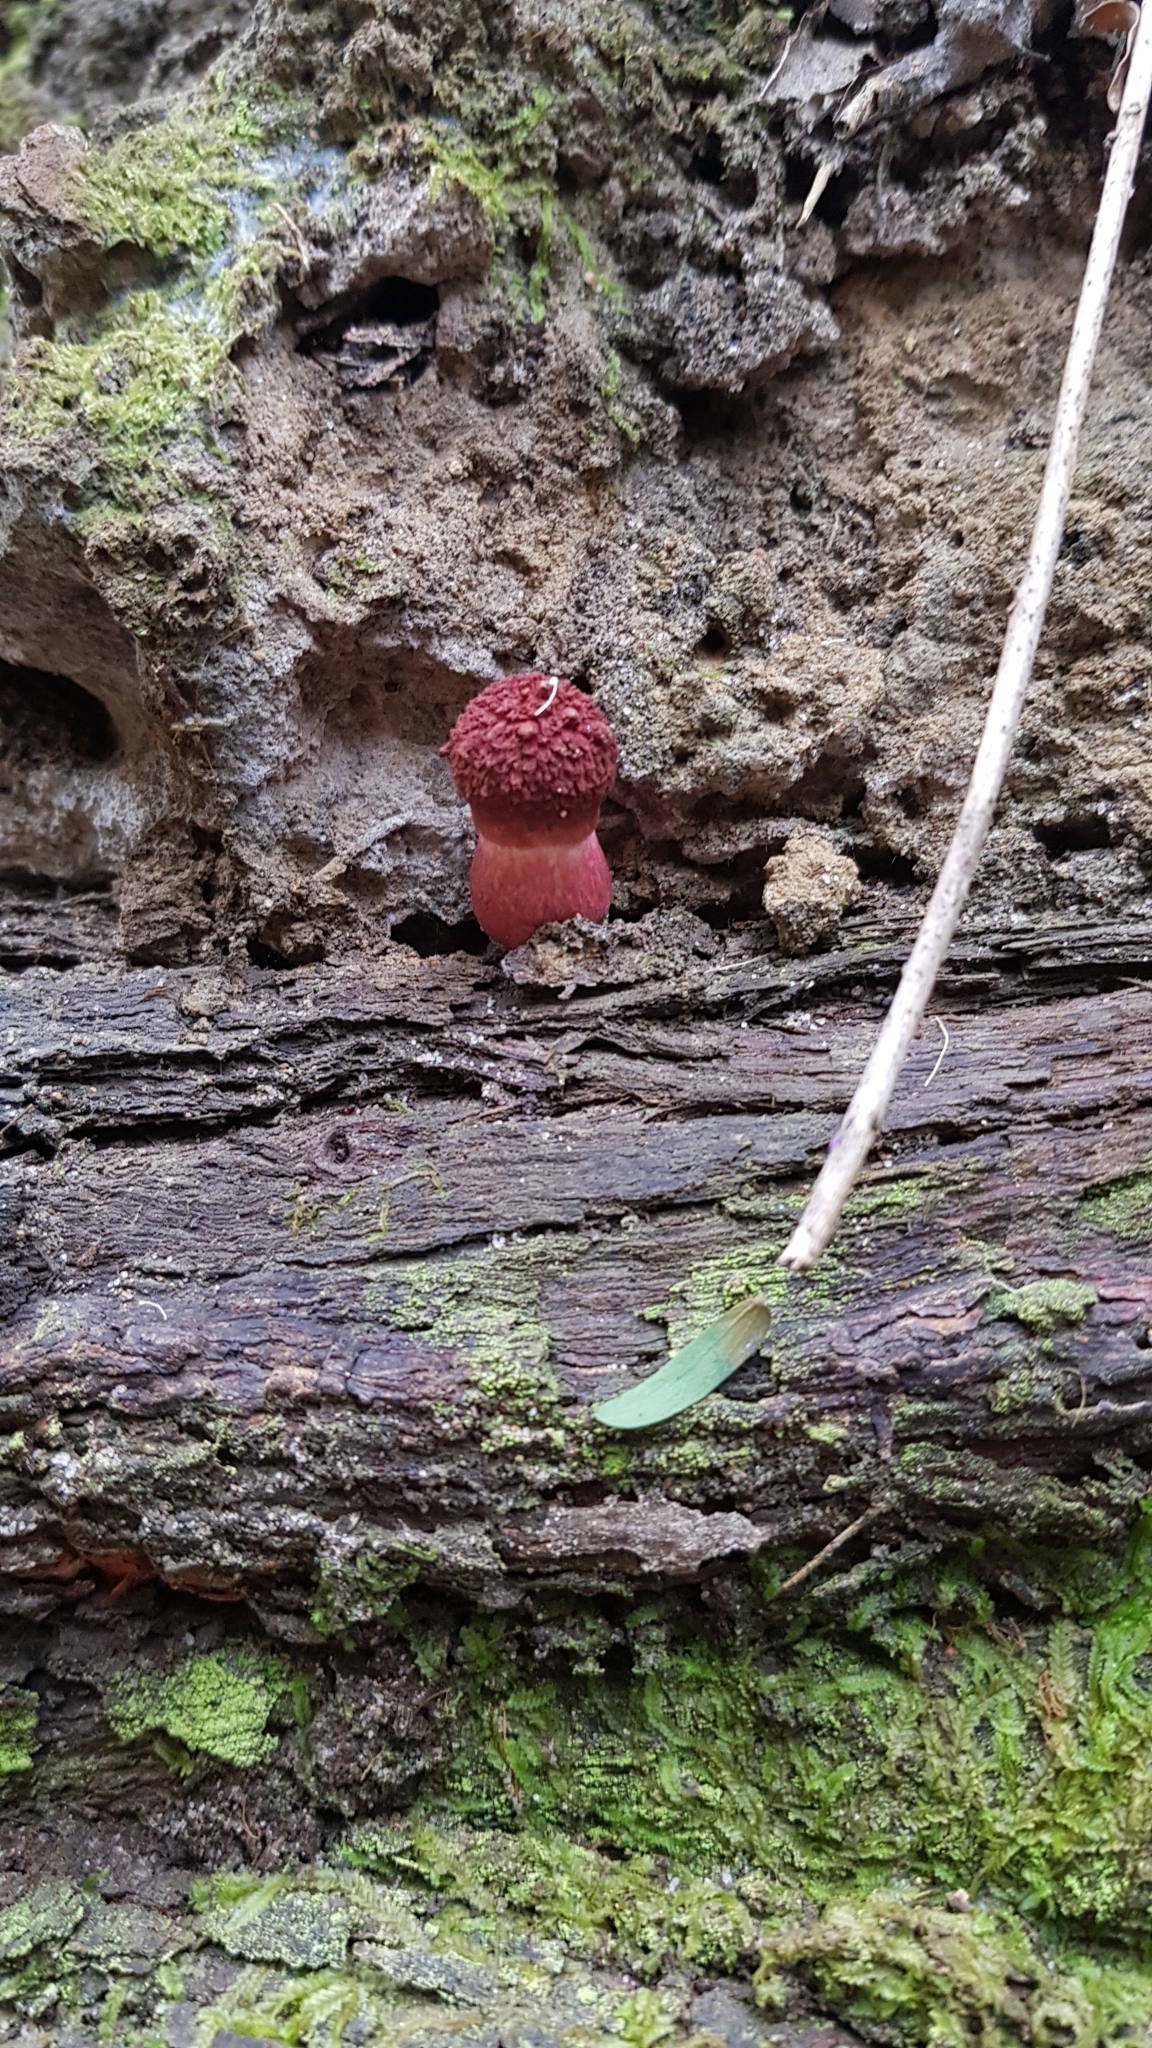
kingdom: Fungi
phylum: Basidiomycota
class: Agaricomycetes
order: Boletales
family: Boletaceae
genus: Boletellus
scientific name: Boletellus emodensis
